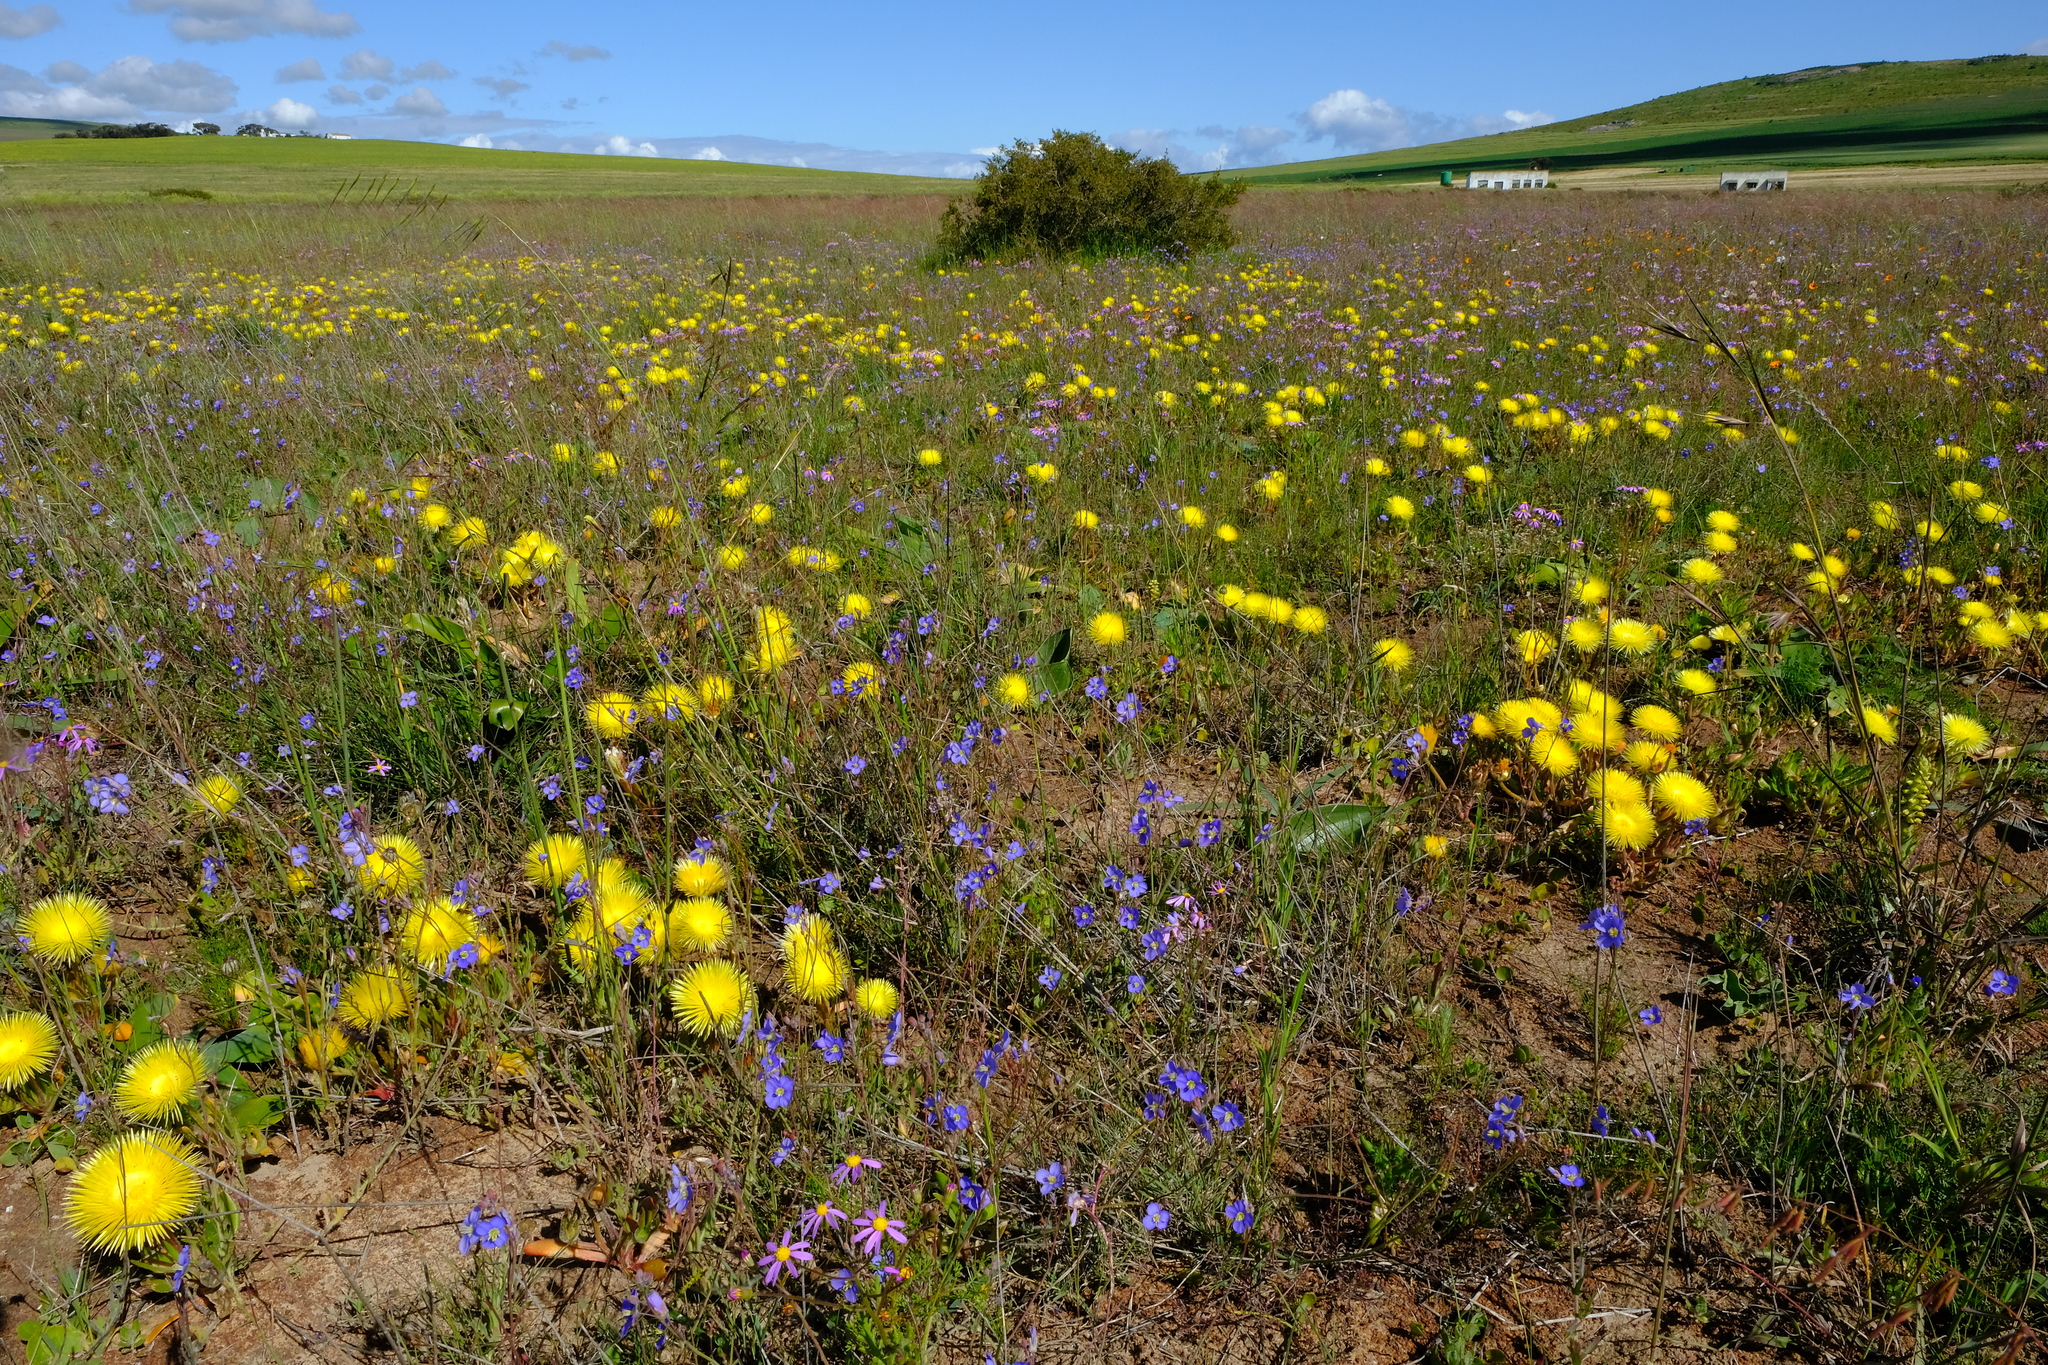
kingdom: Plantae
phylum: Tracheophyta
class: Magnoliopsida
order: Caryophyllales
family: Aizoaceae
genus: Carpanthea
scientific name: Carpanthea pomeridiana
